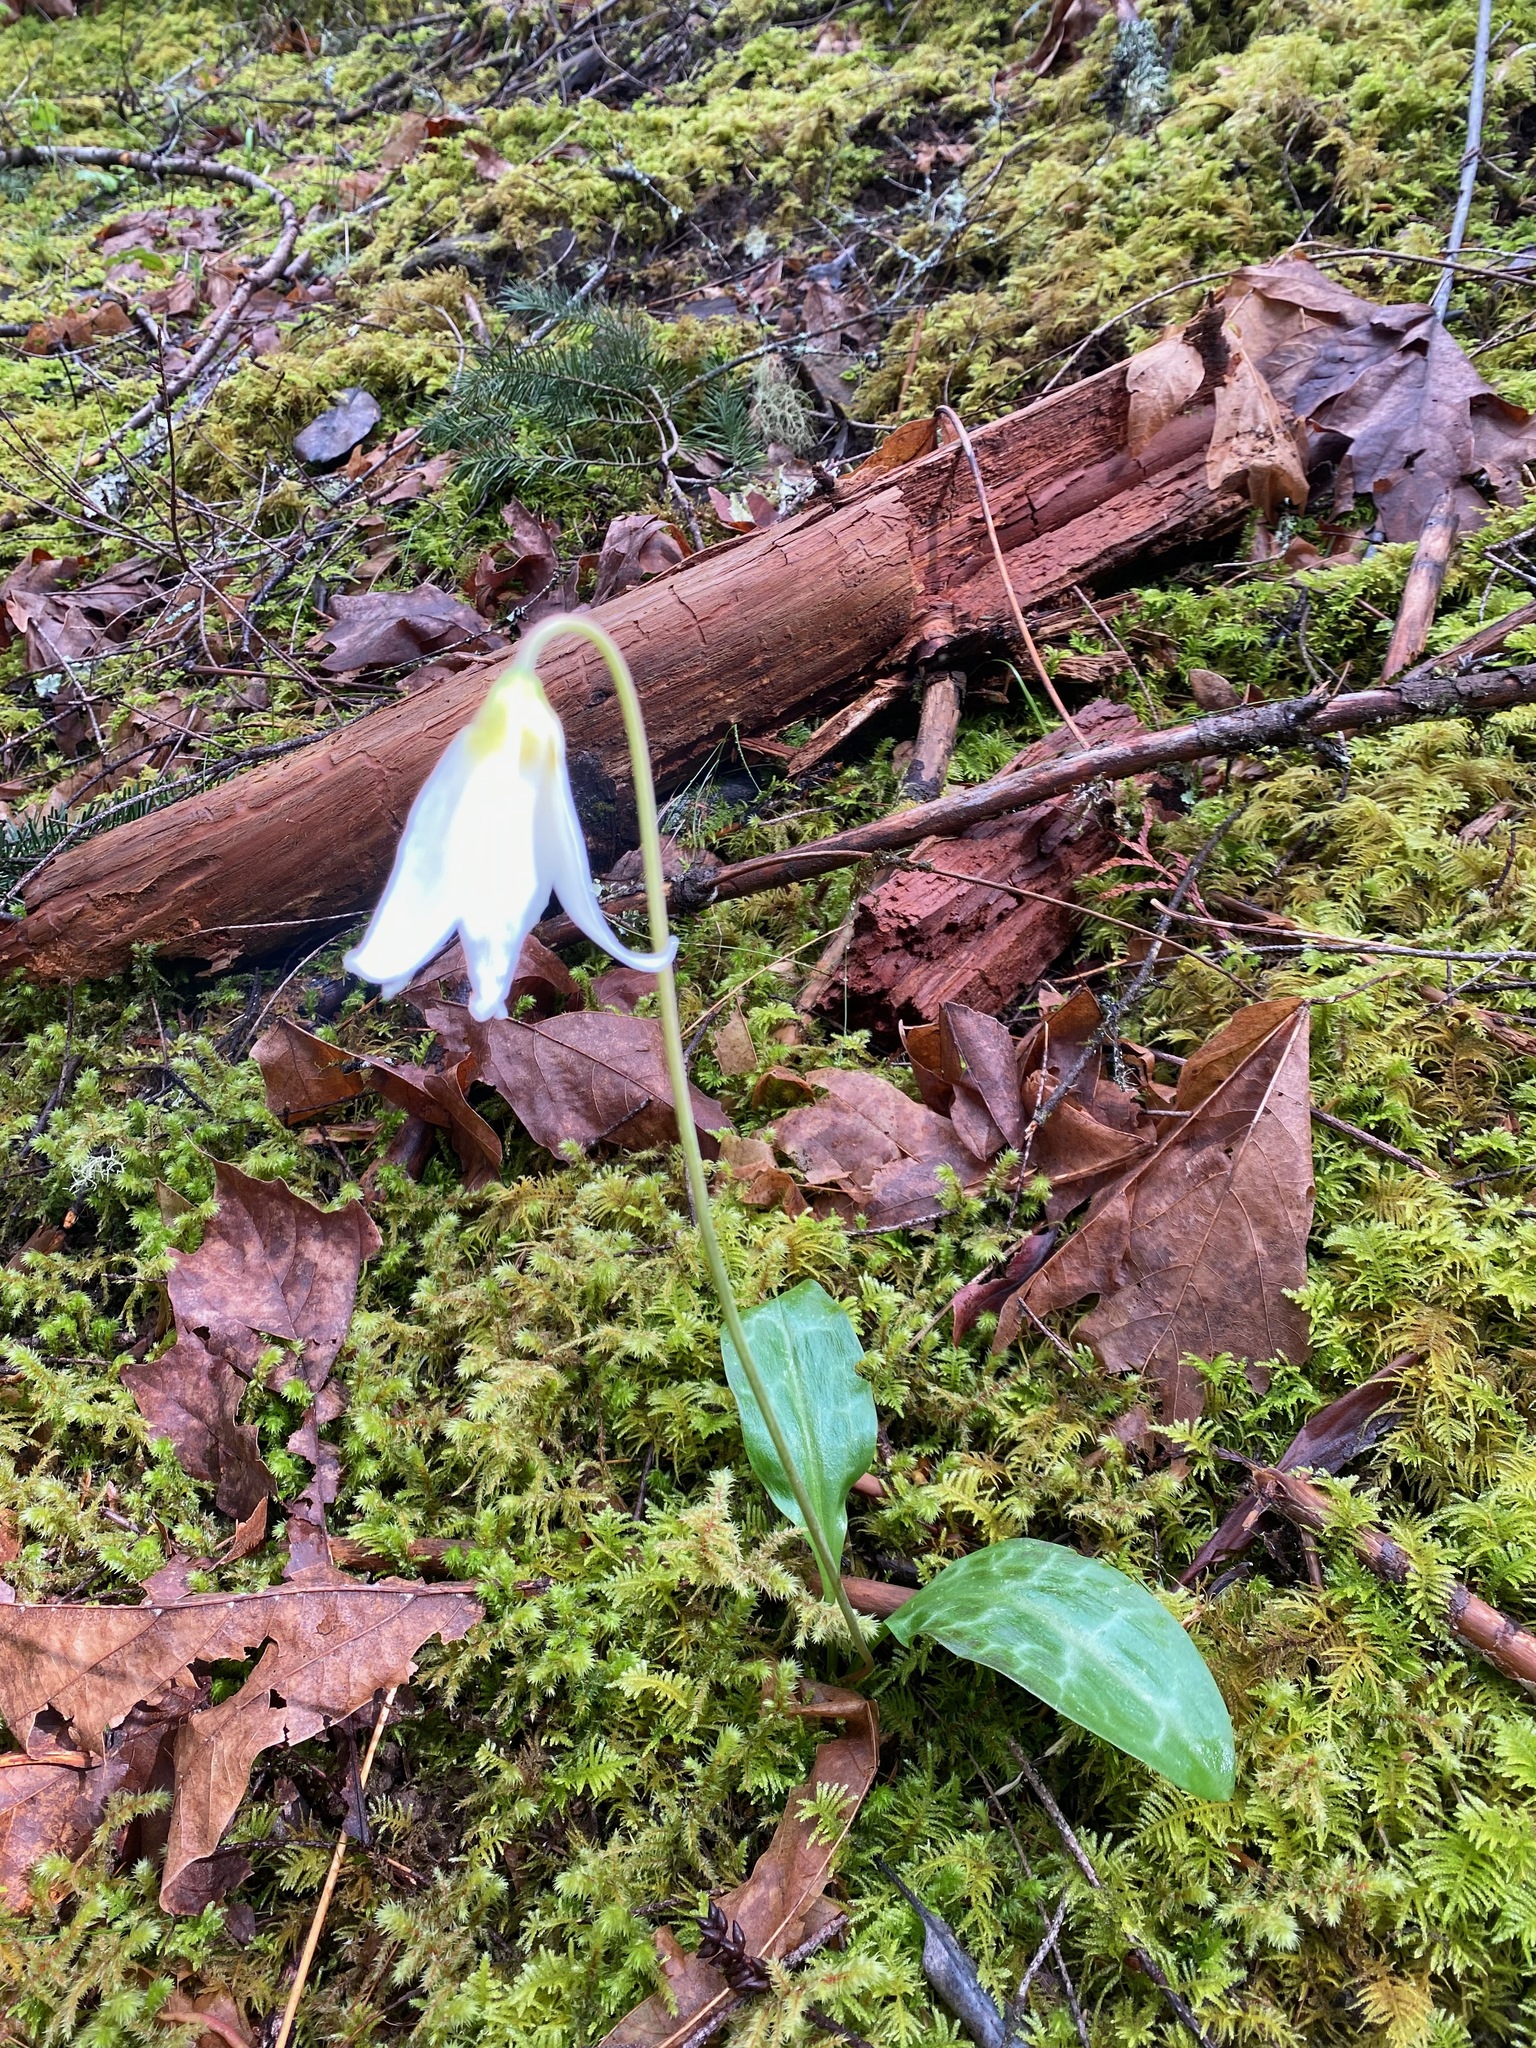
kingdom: Plantae
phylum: Tracheophyta
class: Liliopsida
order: Liliales
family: Liliaceae
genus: Erythronium
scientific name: Erythronium oregonum
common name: Giant adder's-tongue
